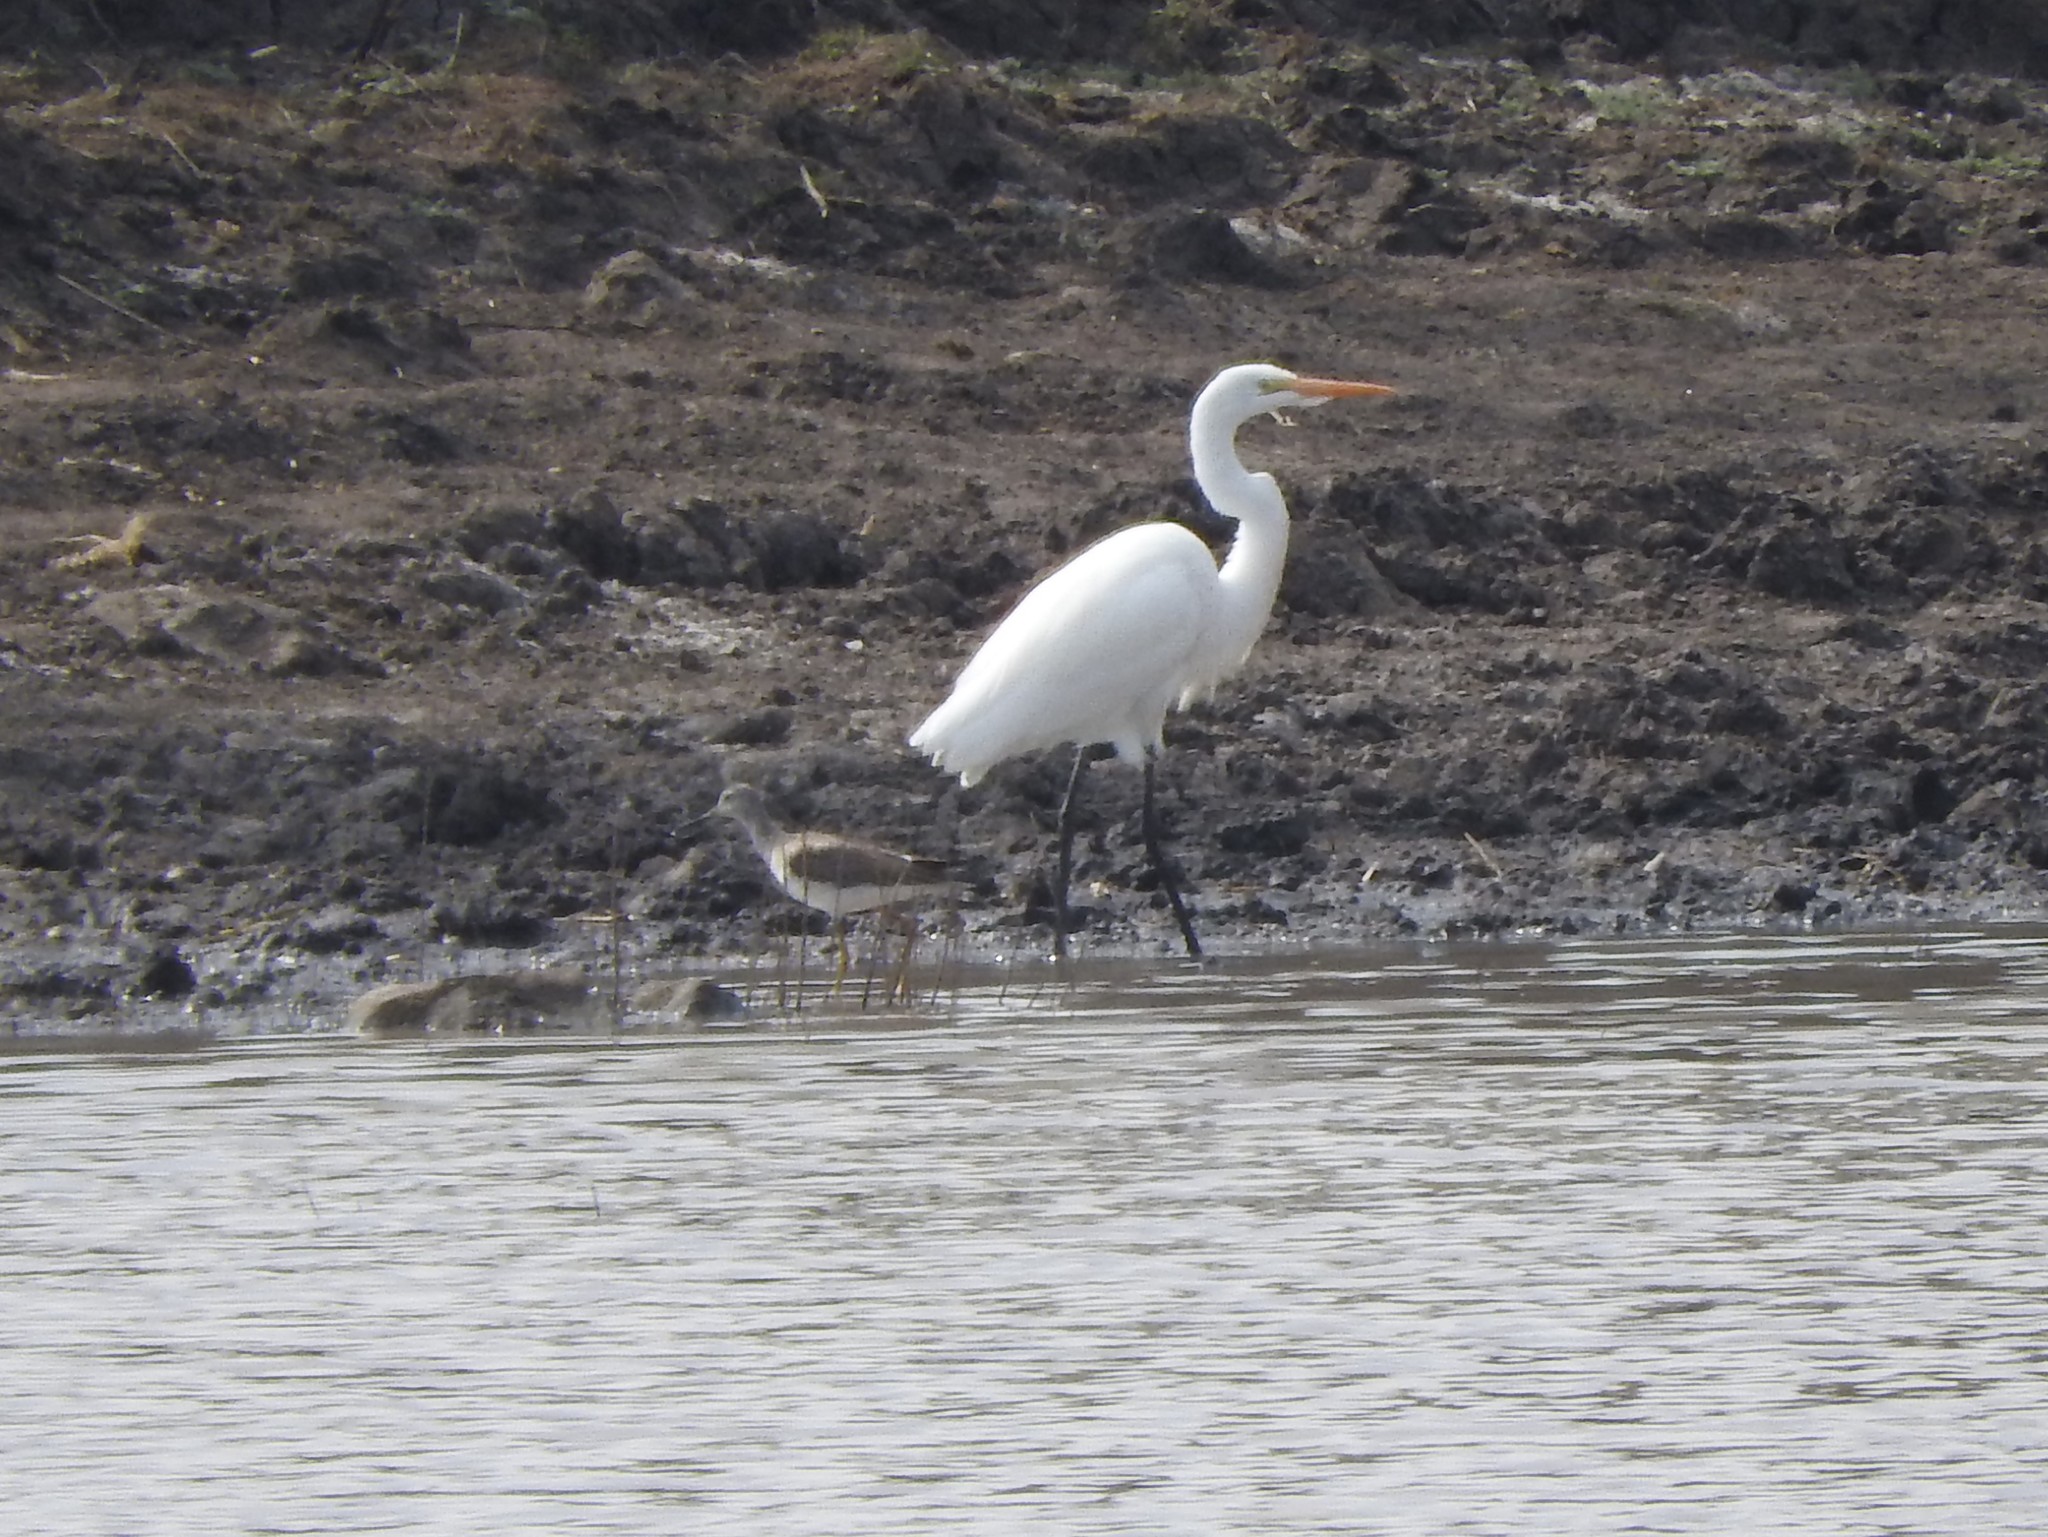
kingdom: Animalia
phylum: Chordata
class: Aves
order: Pelecaniformes
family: Ardeidae
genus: Ardea
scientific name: Ardea alba
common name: Great egret
